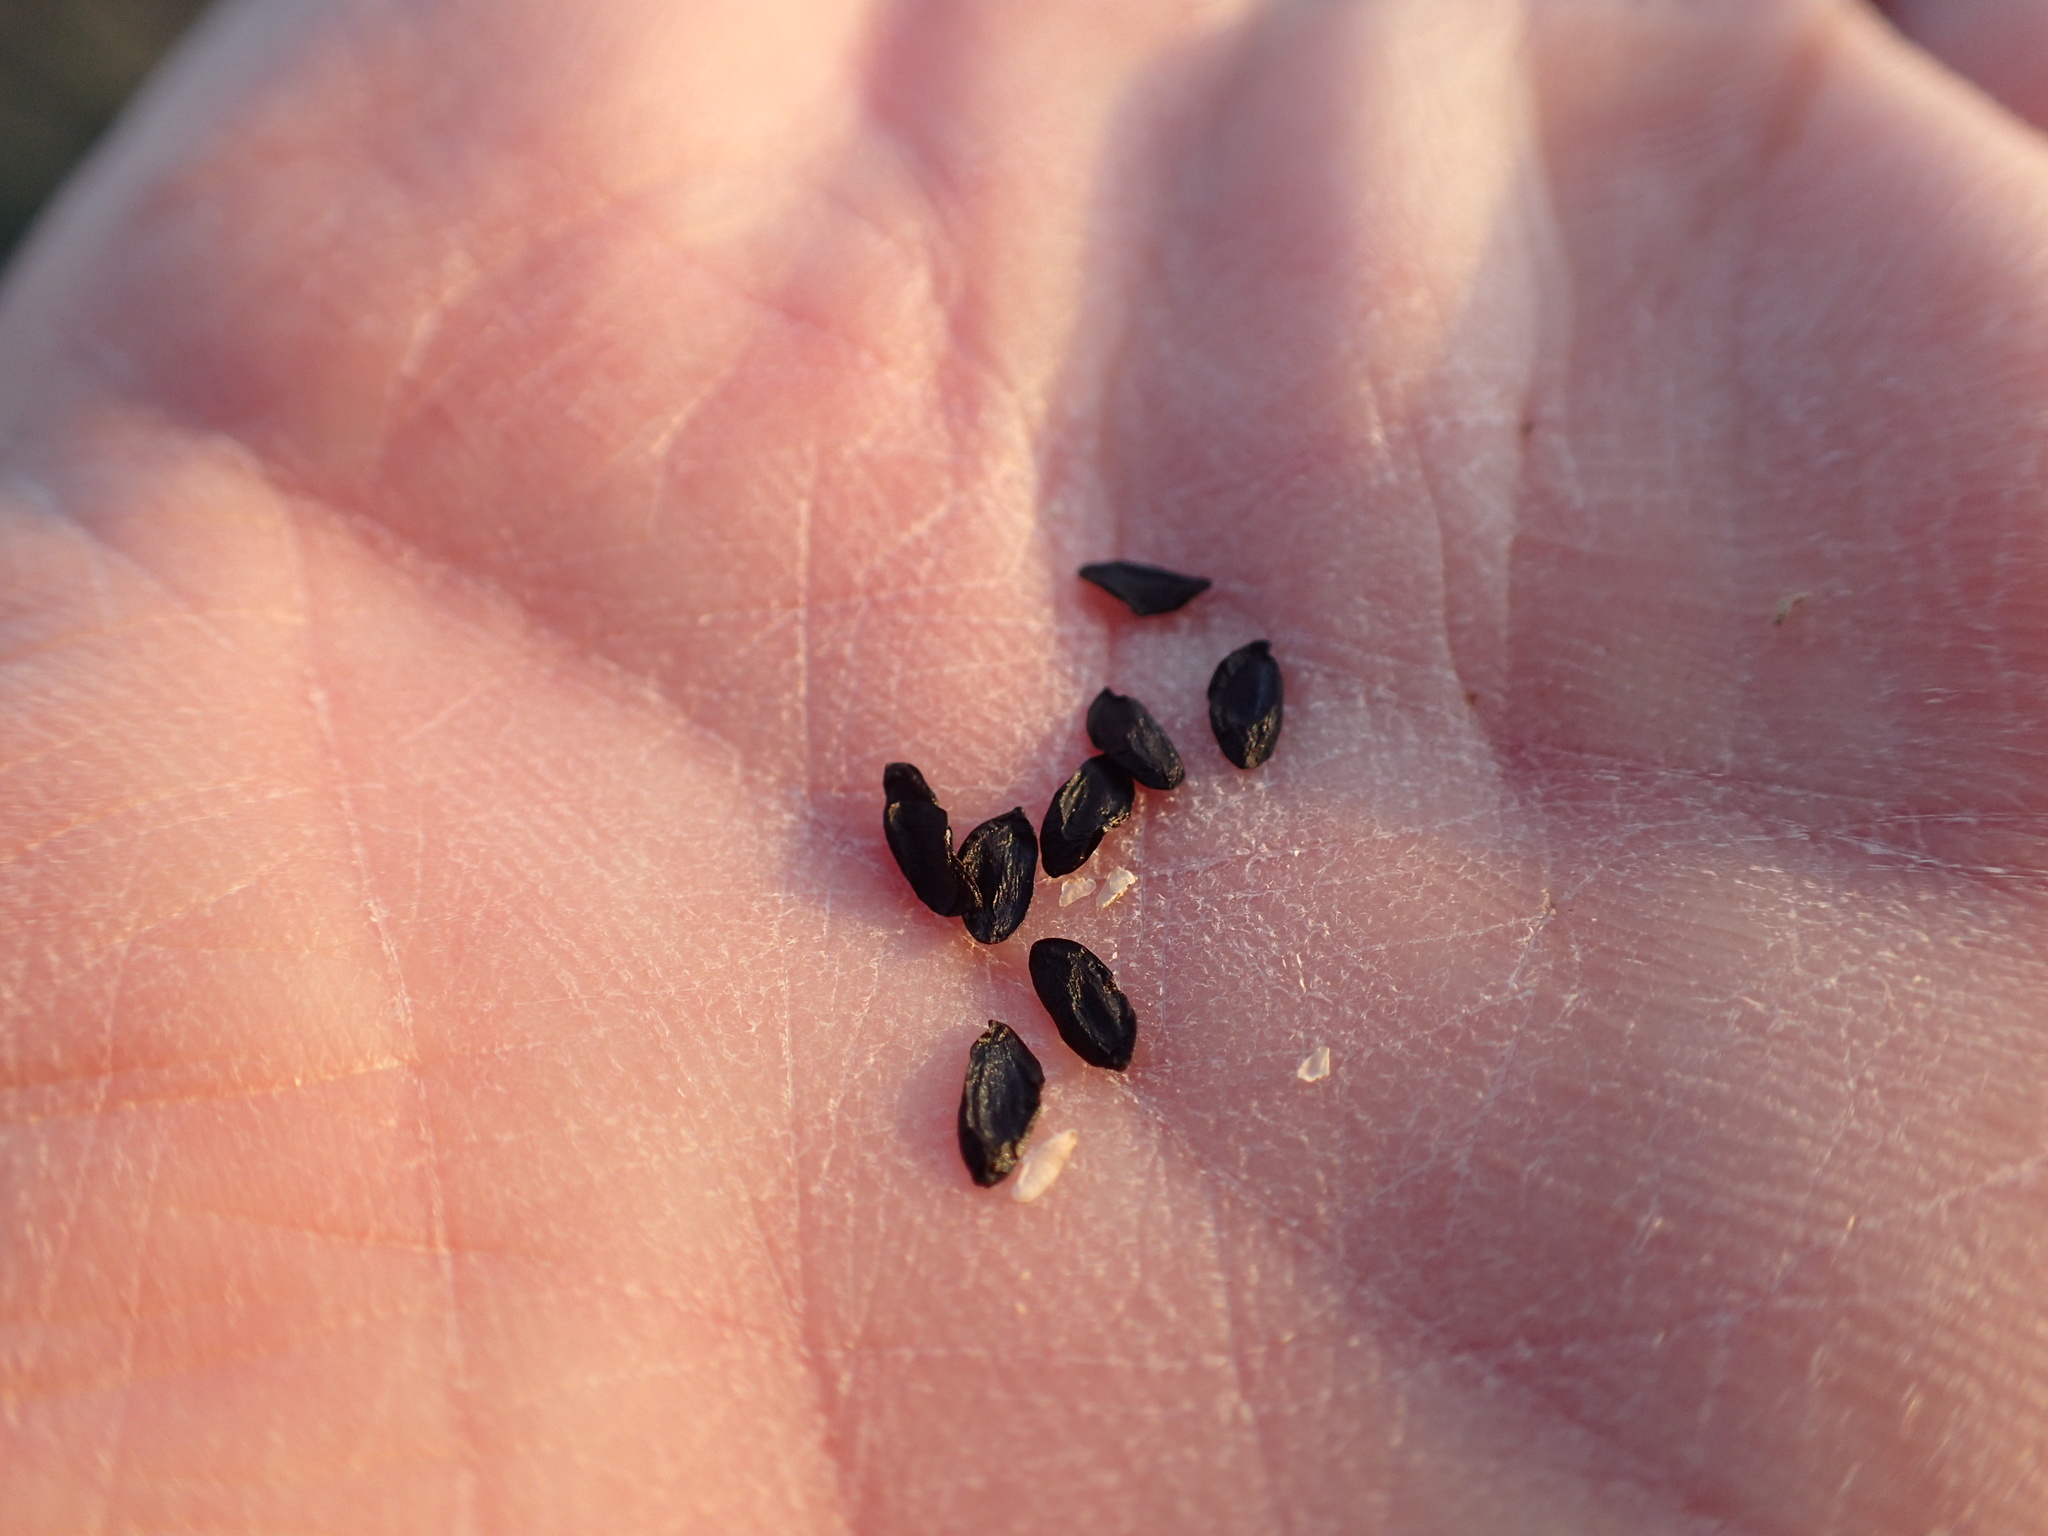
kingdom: Plantae
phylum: Tracheophyta
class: Liliopsida
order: Asparagales
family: Asparagaceae
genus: Triteleiopsis
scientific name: Triteleiopsis palmeri
